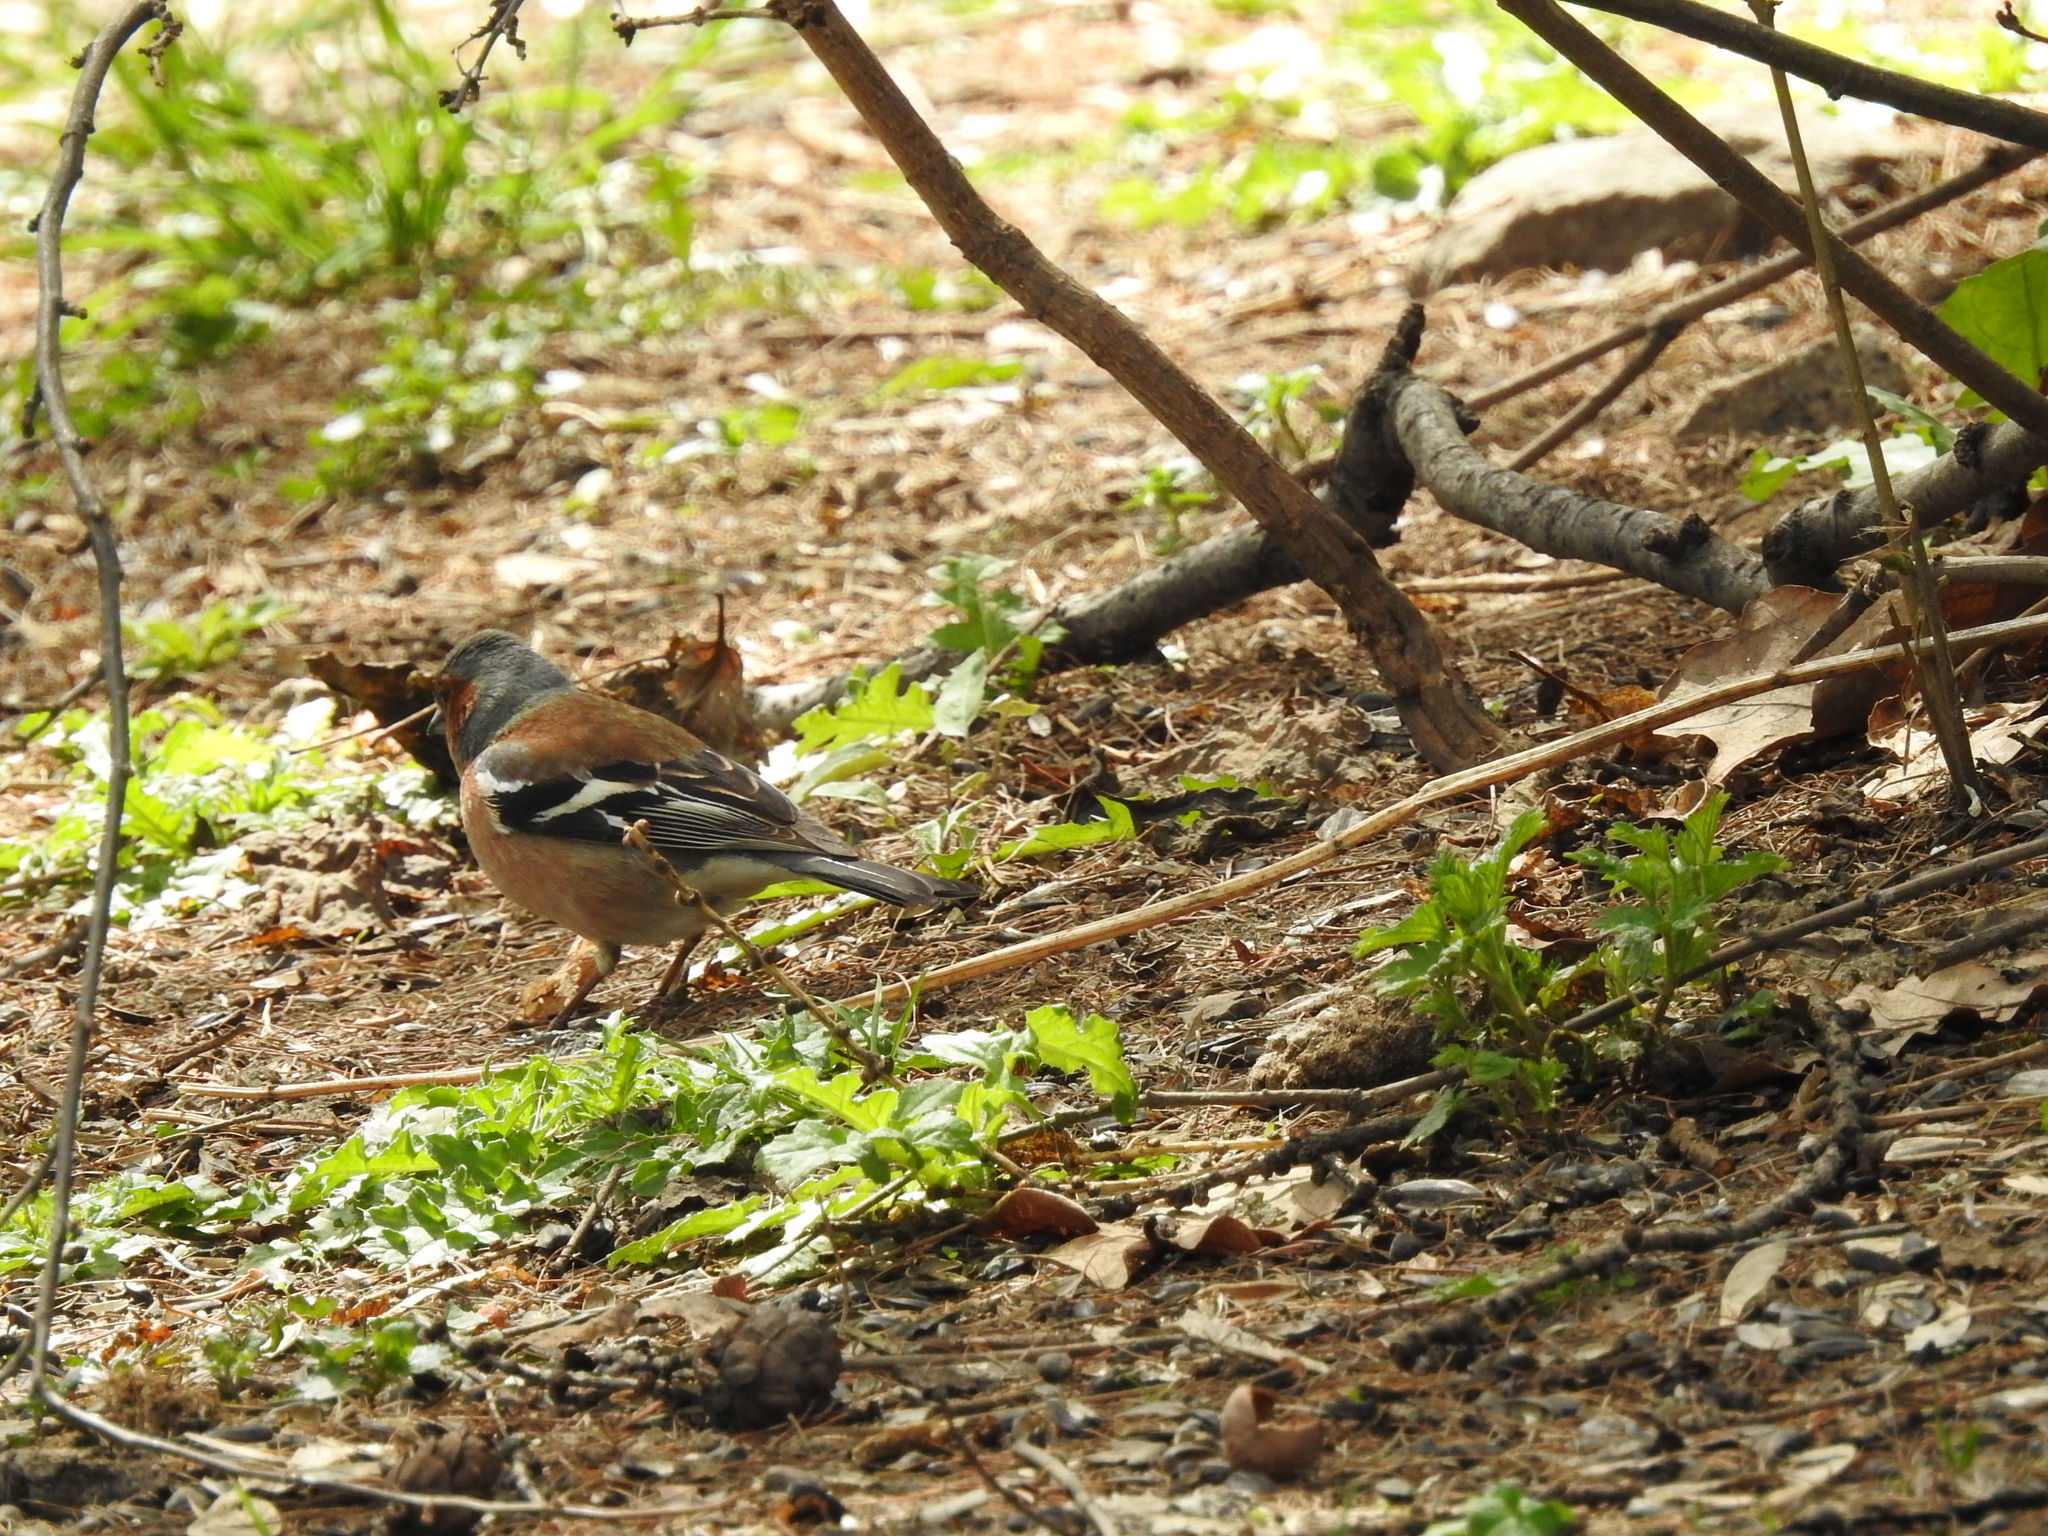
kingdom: Animalia
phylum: Chordata
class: Aves
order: Passeriformes
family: Fringillidae
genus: Fringilla
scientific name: Fringilla coelebs
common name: Common chaffinch
